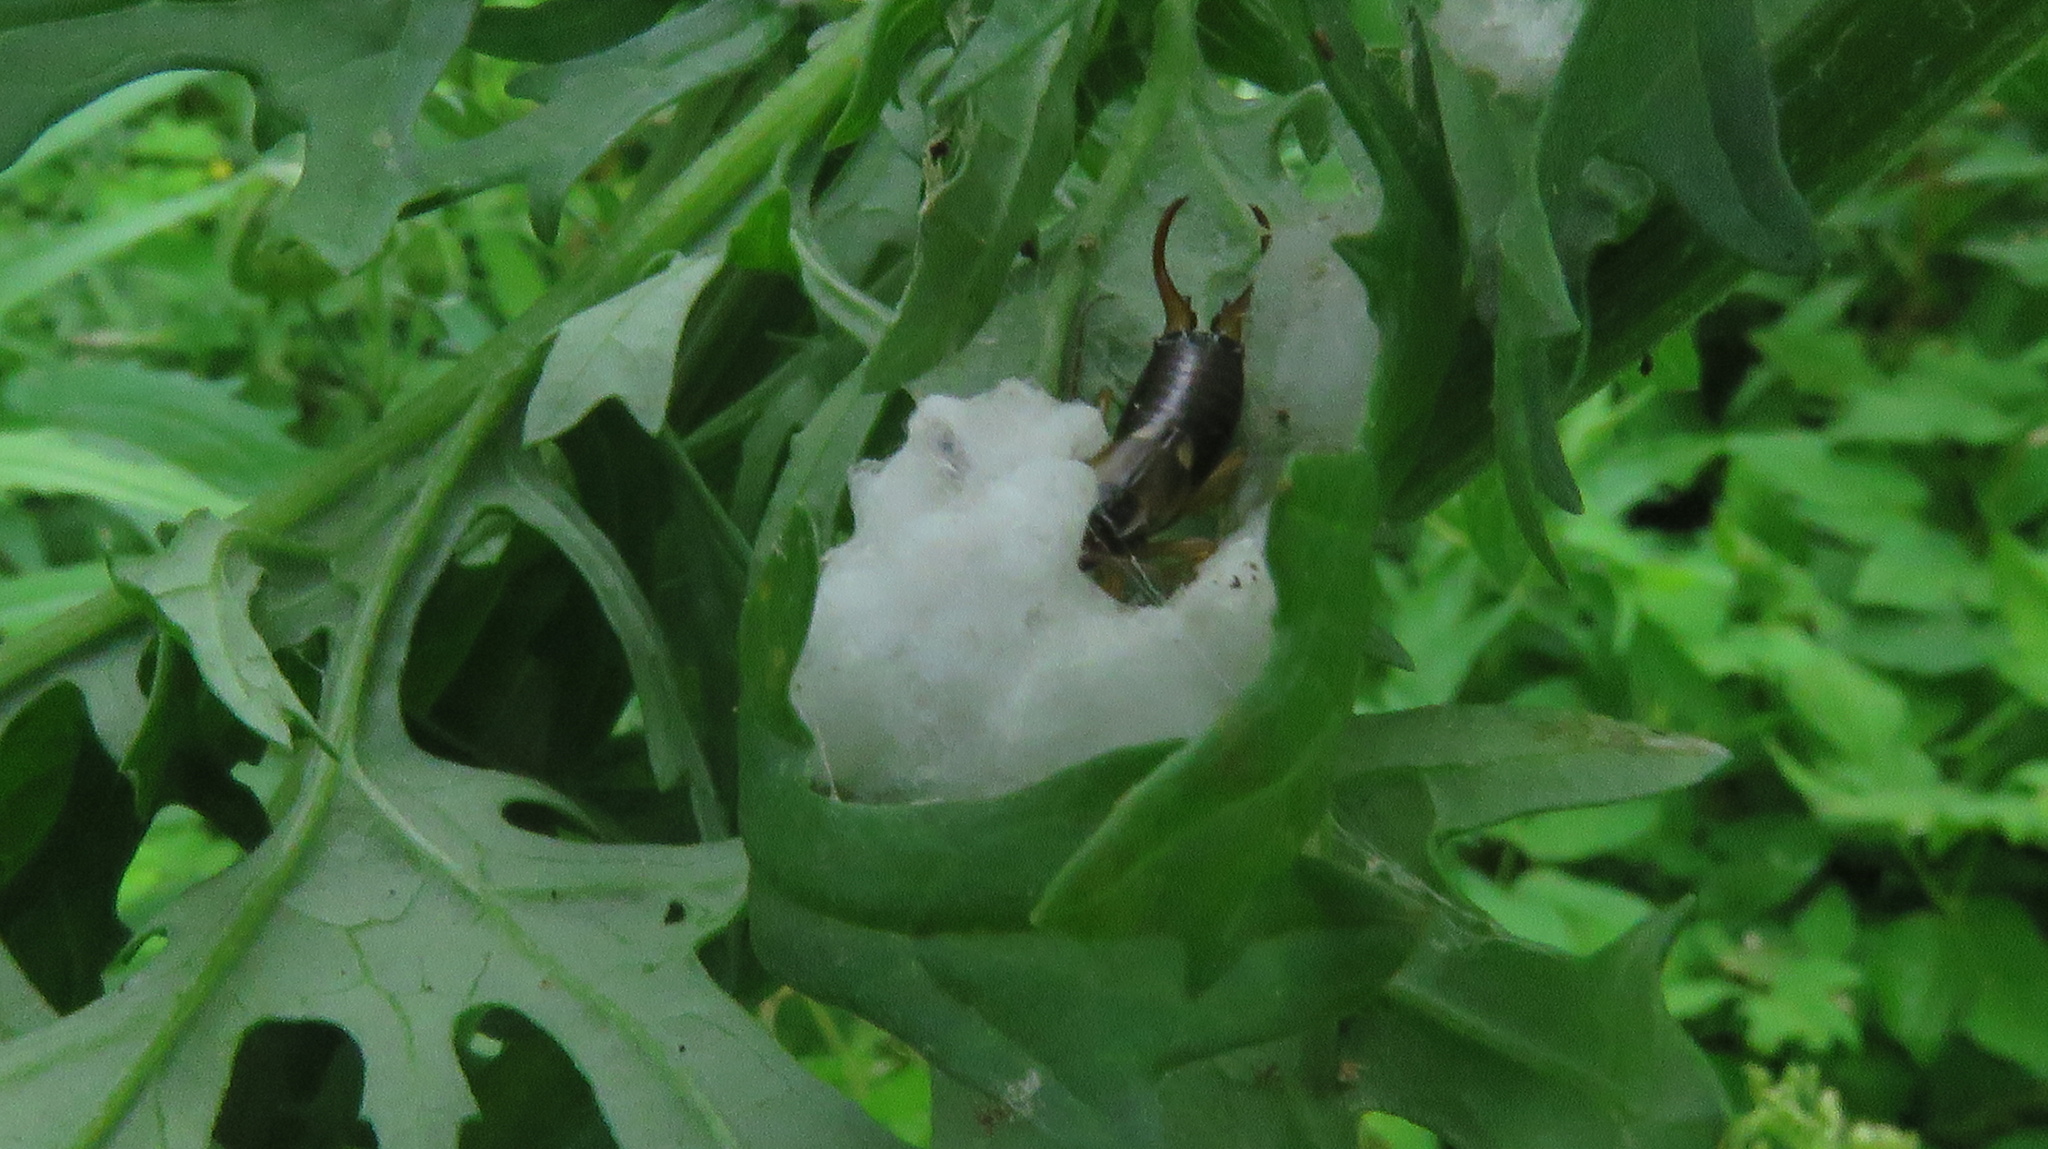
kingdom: Animalia
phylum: Arthropoda
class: Insecta
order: Dermaptera
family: Forficulidae
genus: Forficula
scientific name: Forficula
